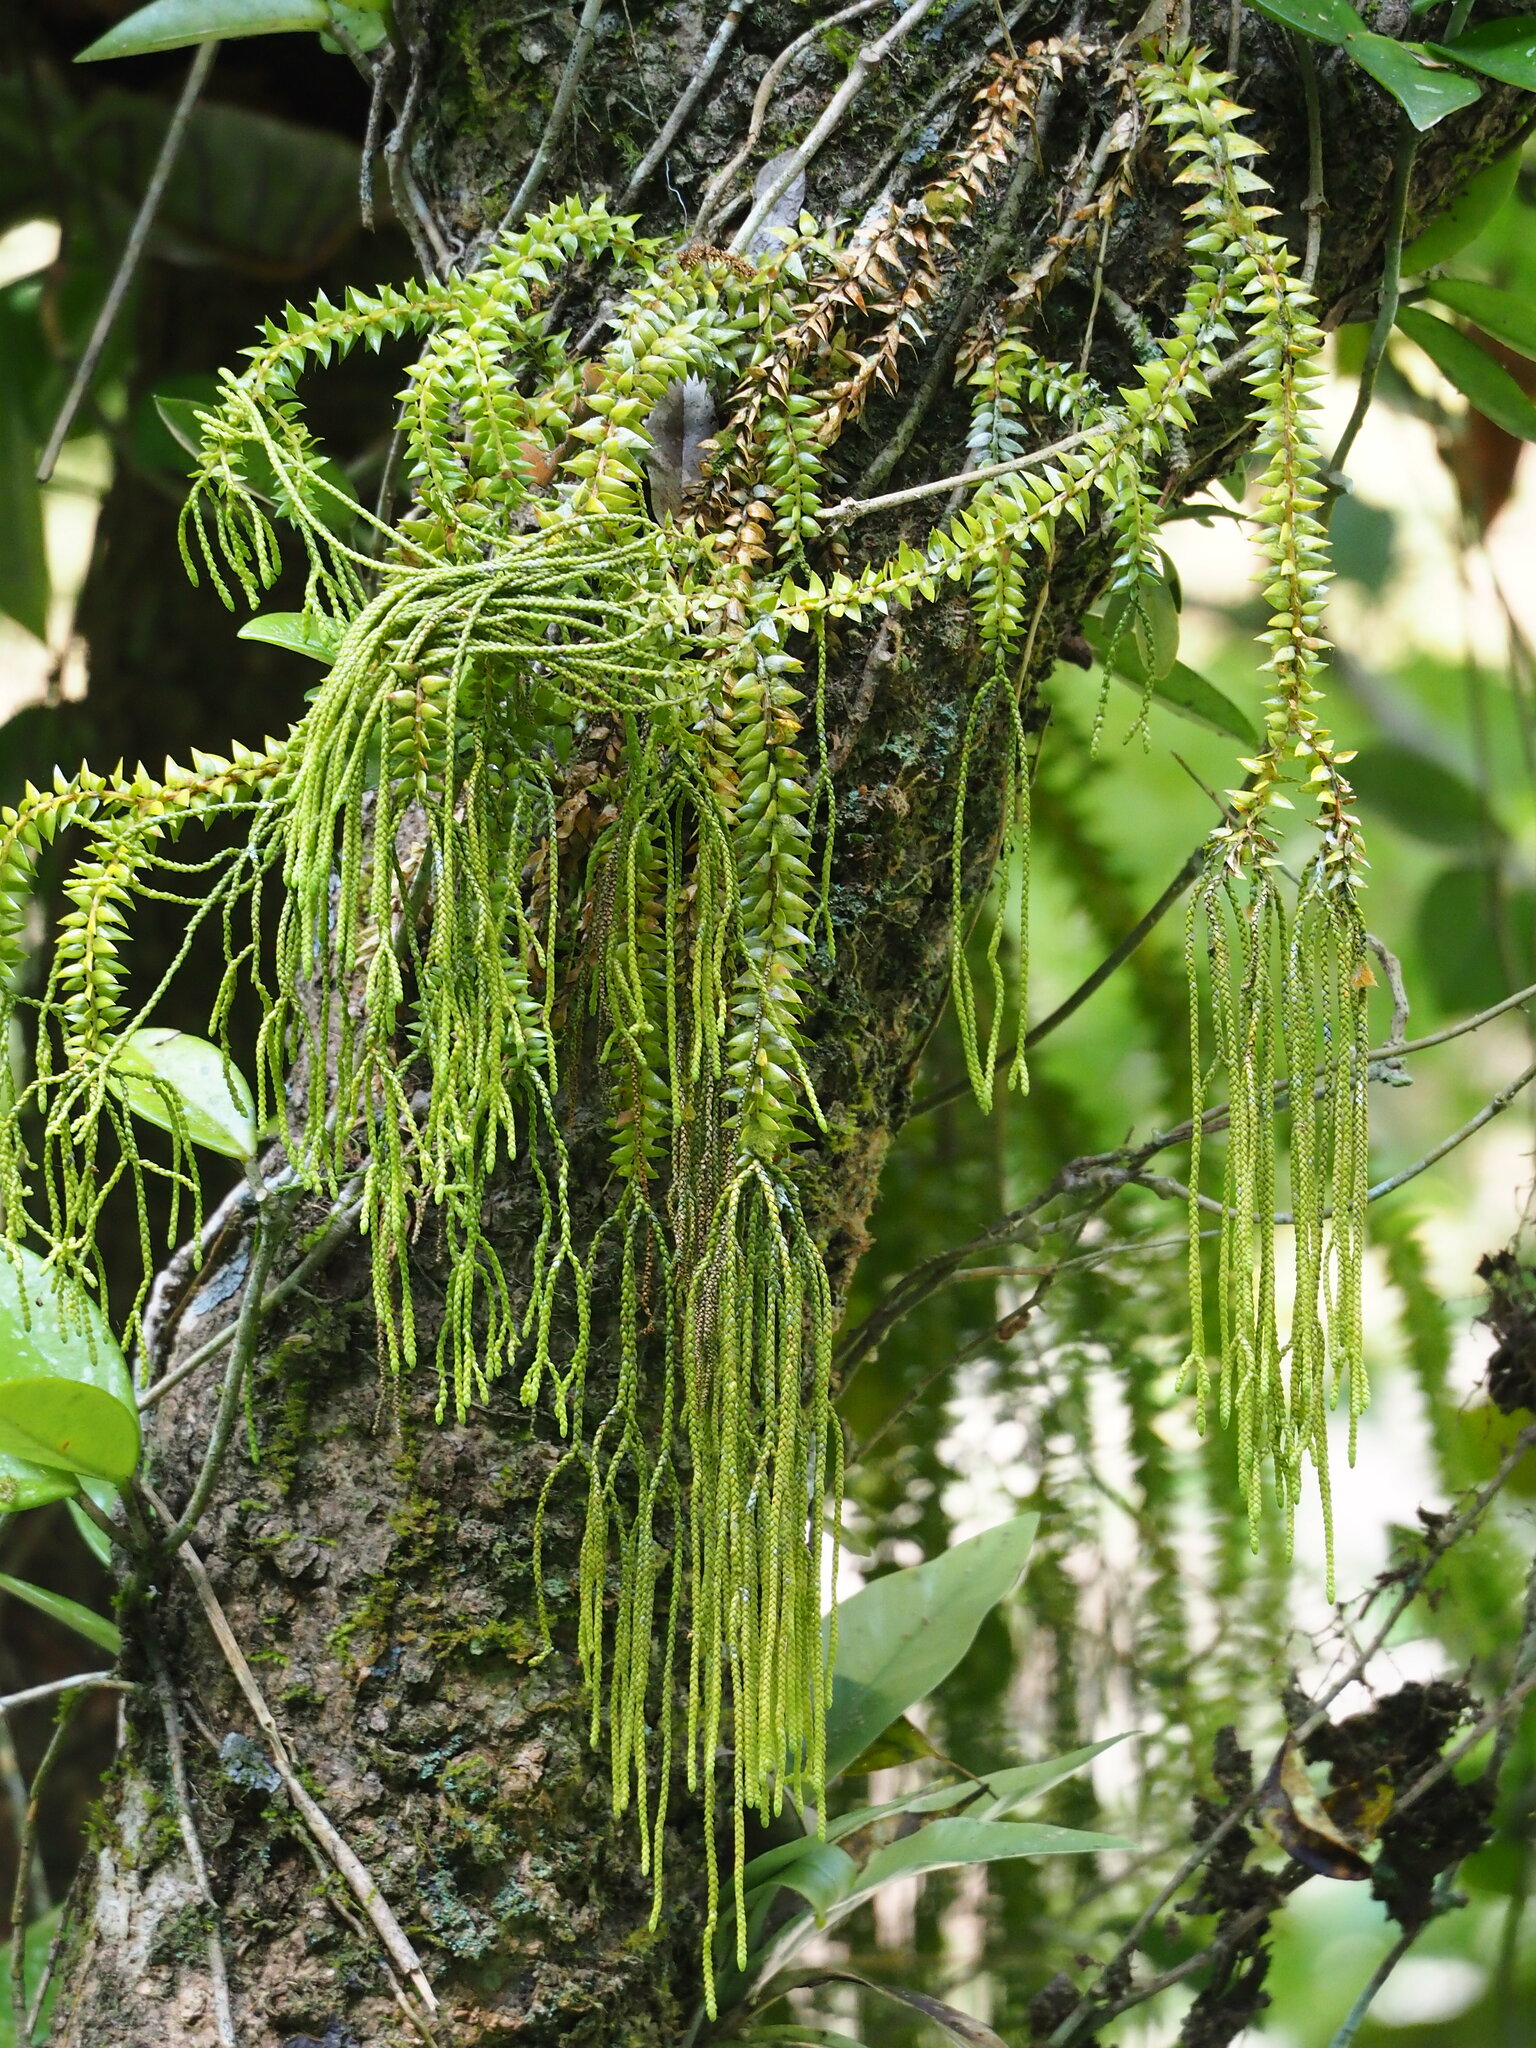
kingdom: Plantae
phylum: Tracheophyta
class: Lycopodiopsida
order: Lycopodiales
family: Lycopodiaceae
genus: Phlegmariurus
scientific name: Phlegmariurus phlegmaria
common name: Coarse tassel-fern
